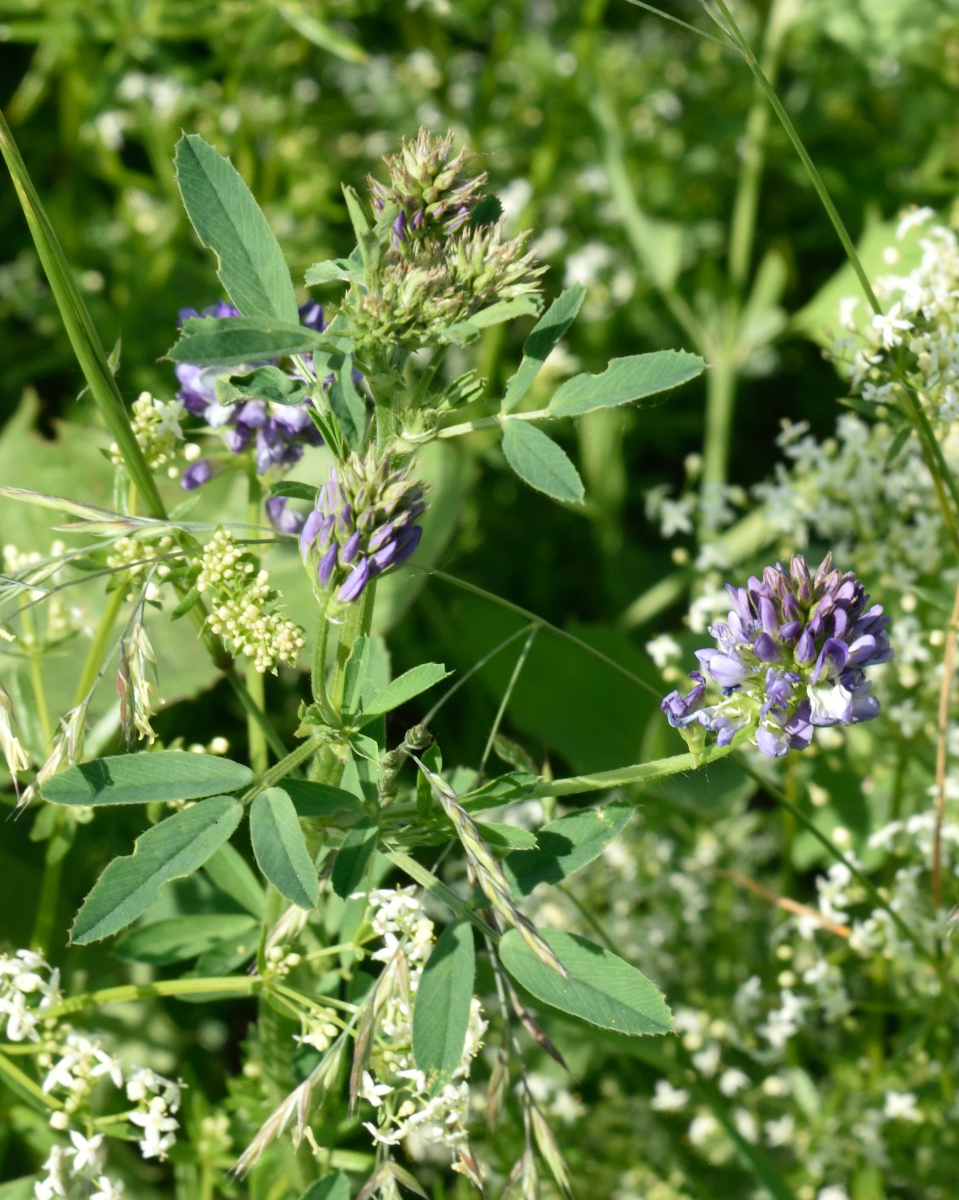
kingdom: Plantae
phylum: Tracheophyta
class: Magnoliopsida
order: Fabales
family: Fabaceae
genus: Medicago
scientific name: Medicago varia
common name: Sand lucerne
